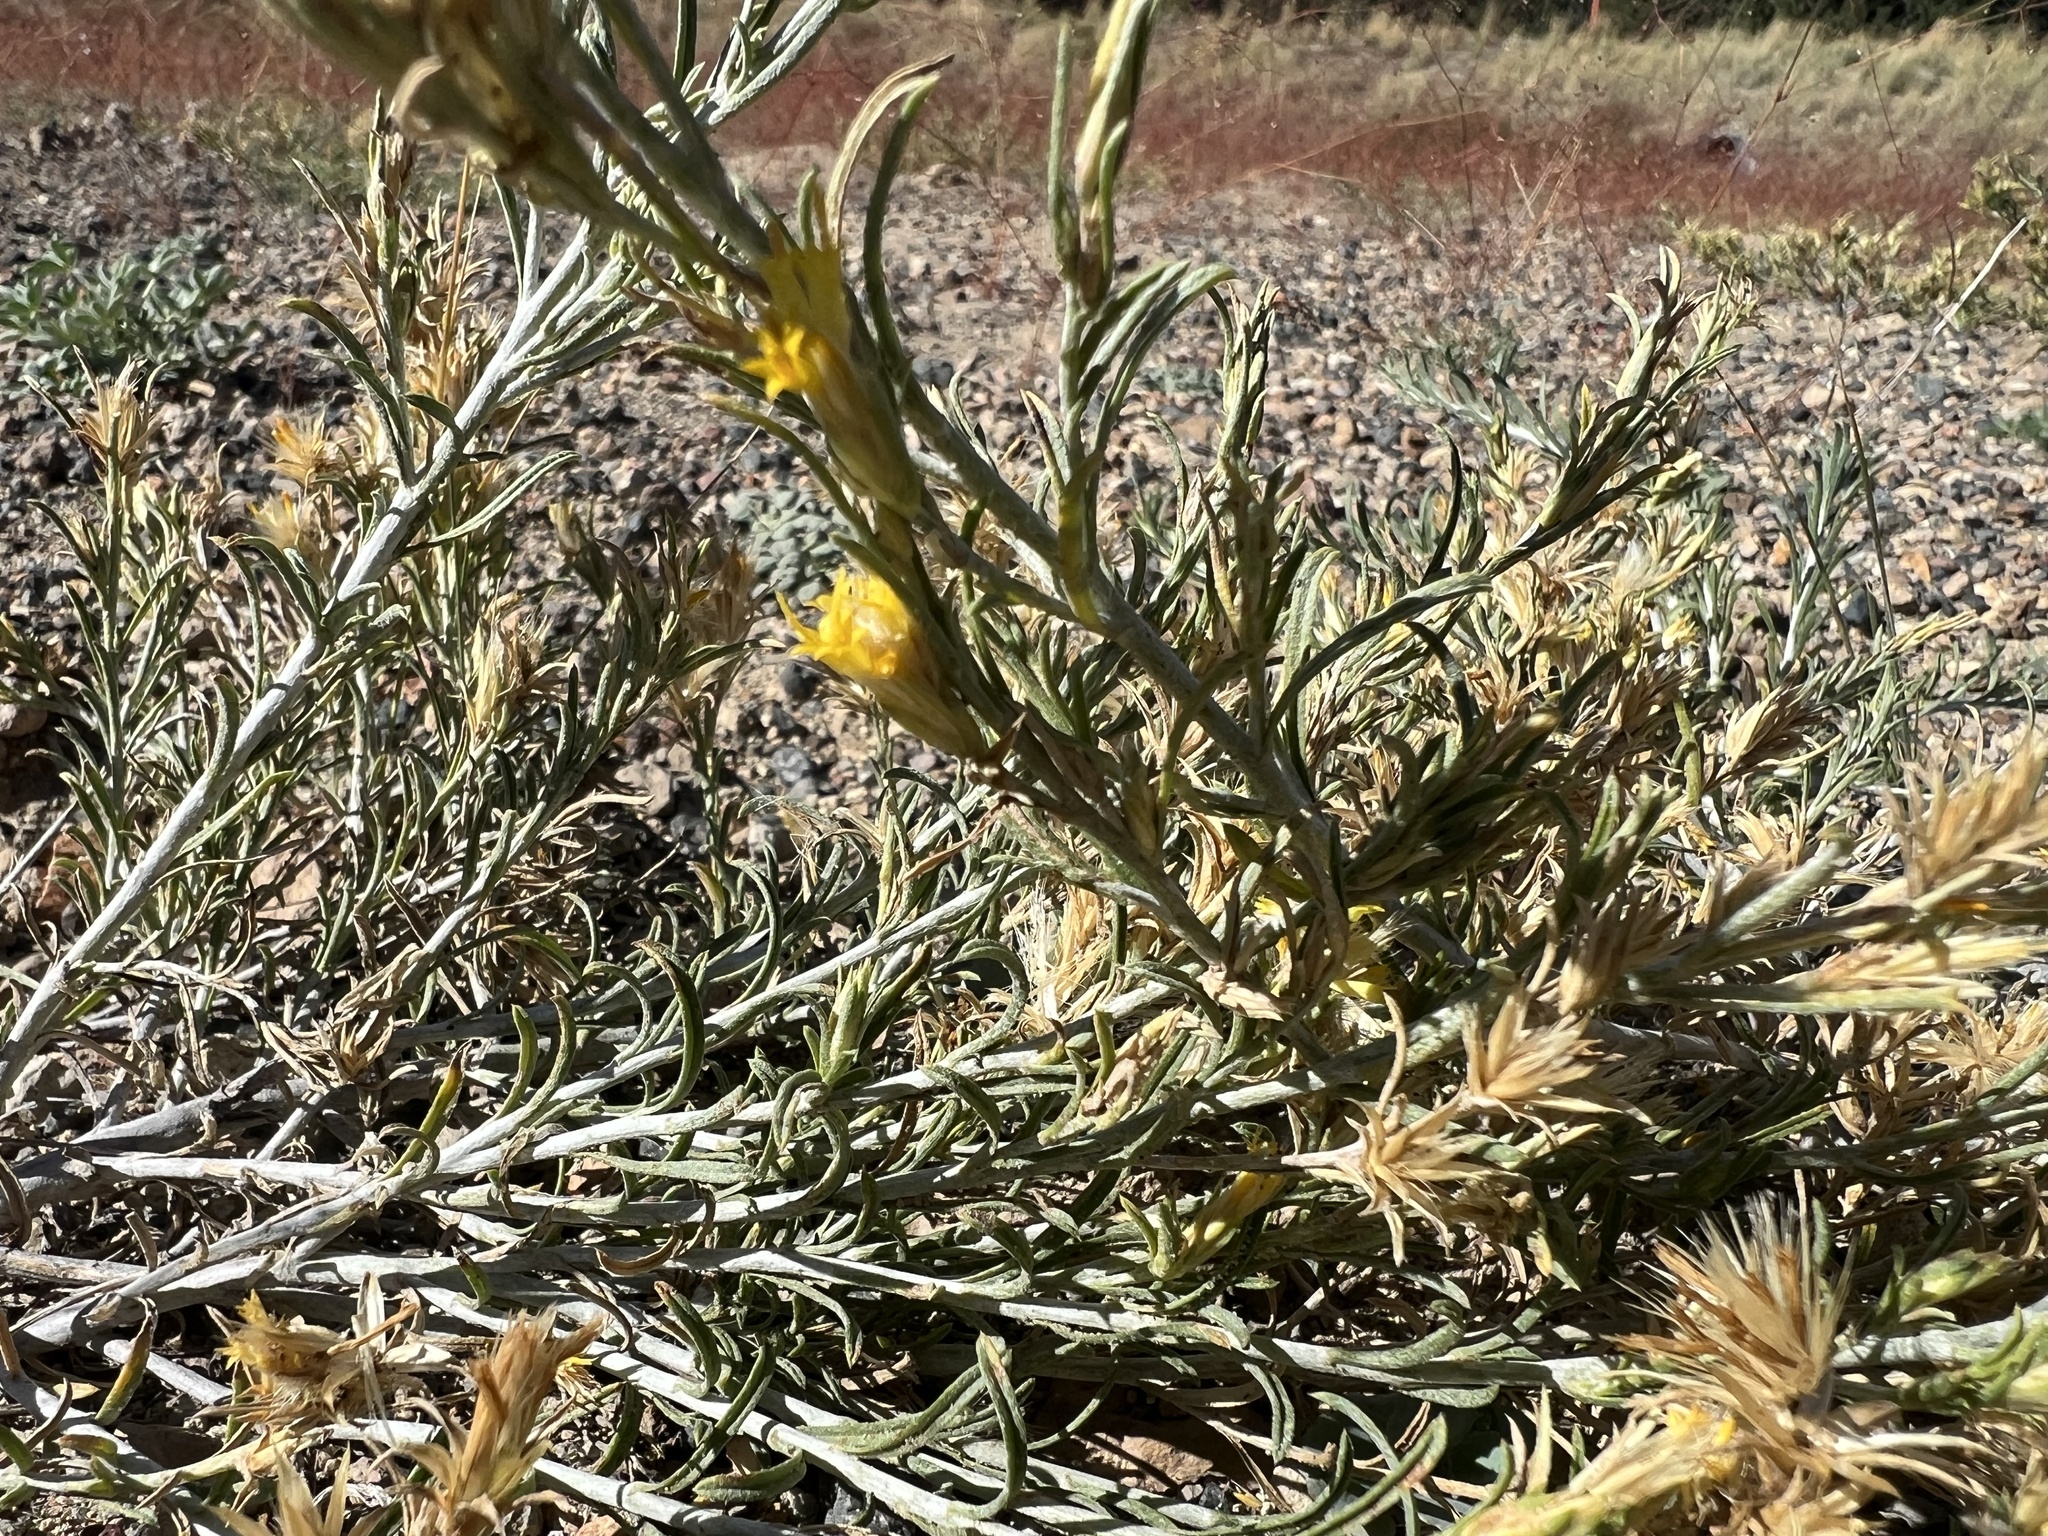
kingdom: Plantae
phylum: Tracheophyta
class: Magnoliopsida
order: Asterales
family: Asteraceae
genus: Ericameria
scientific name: Ericameria parryi
